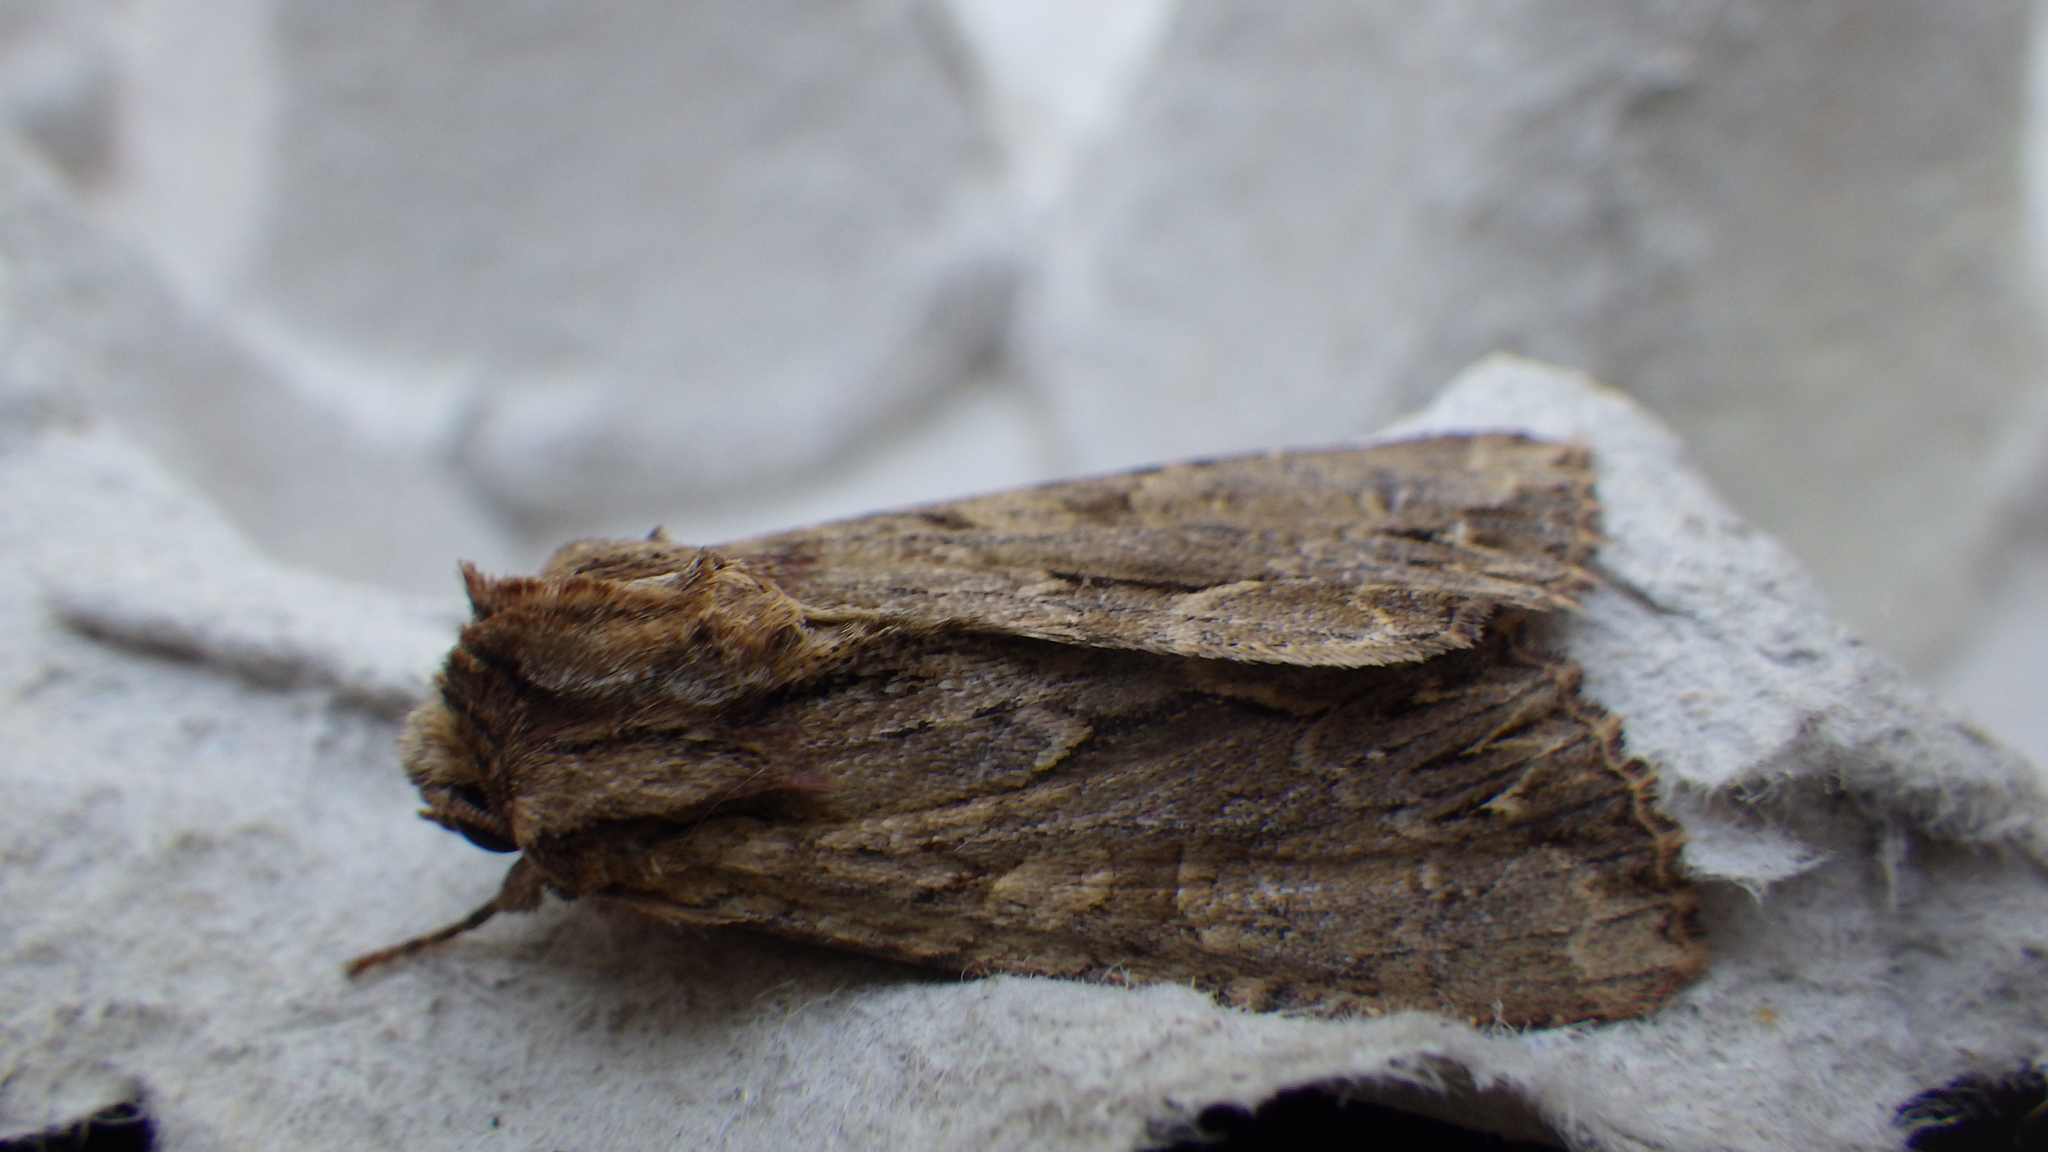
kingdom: Animalia
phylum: Arthropoda
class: Insecta
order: Lepidoptera
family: Noctuidae
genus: Apamea
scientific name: Apamea monoglypha
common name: Dark arches
